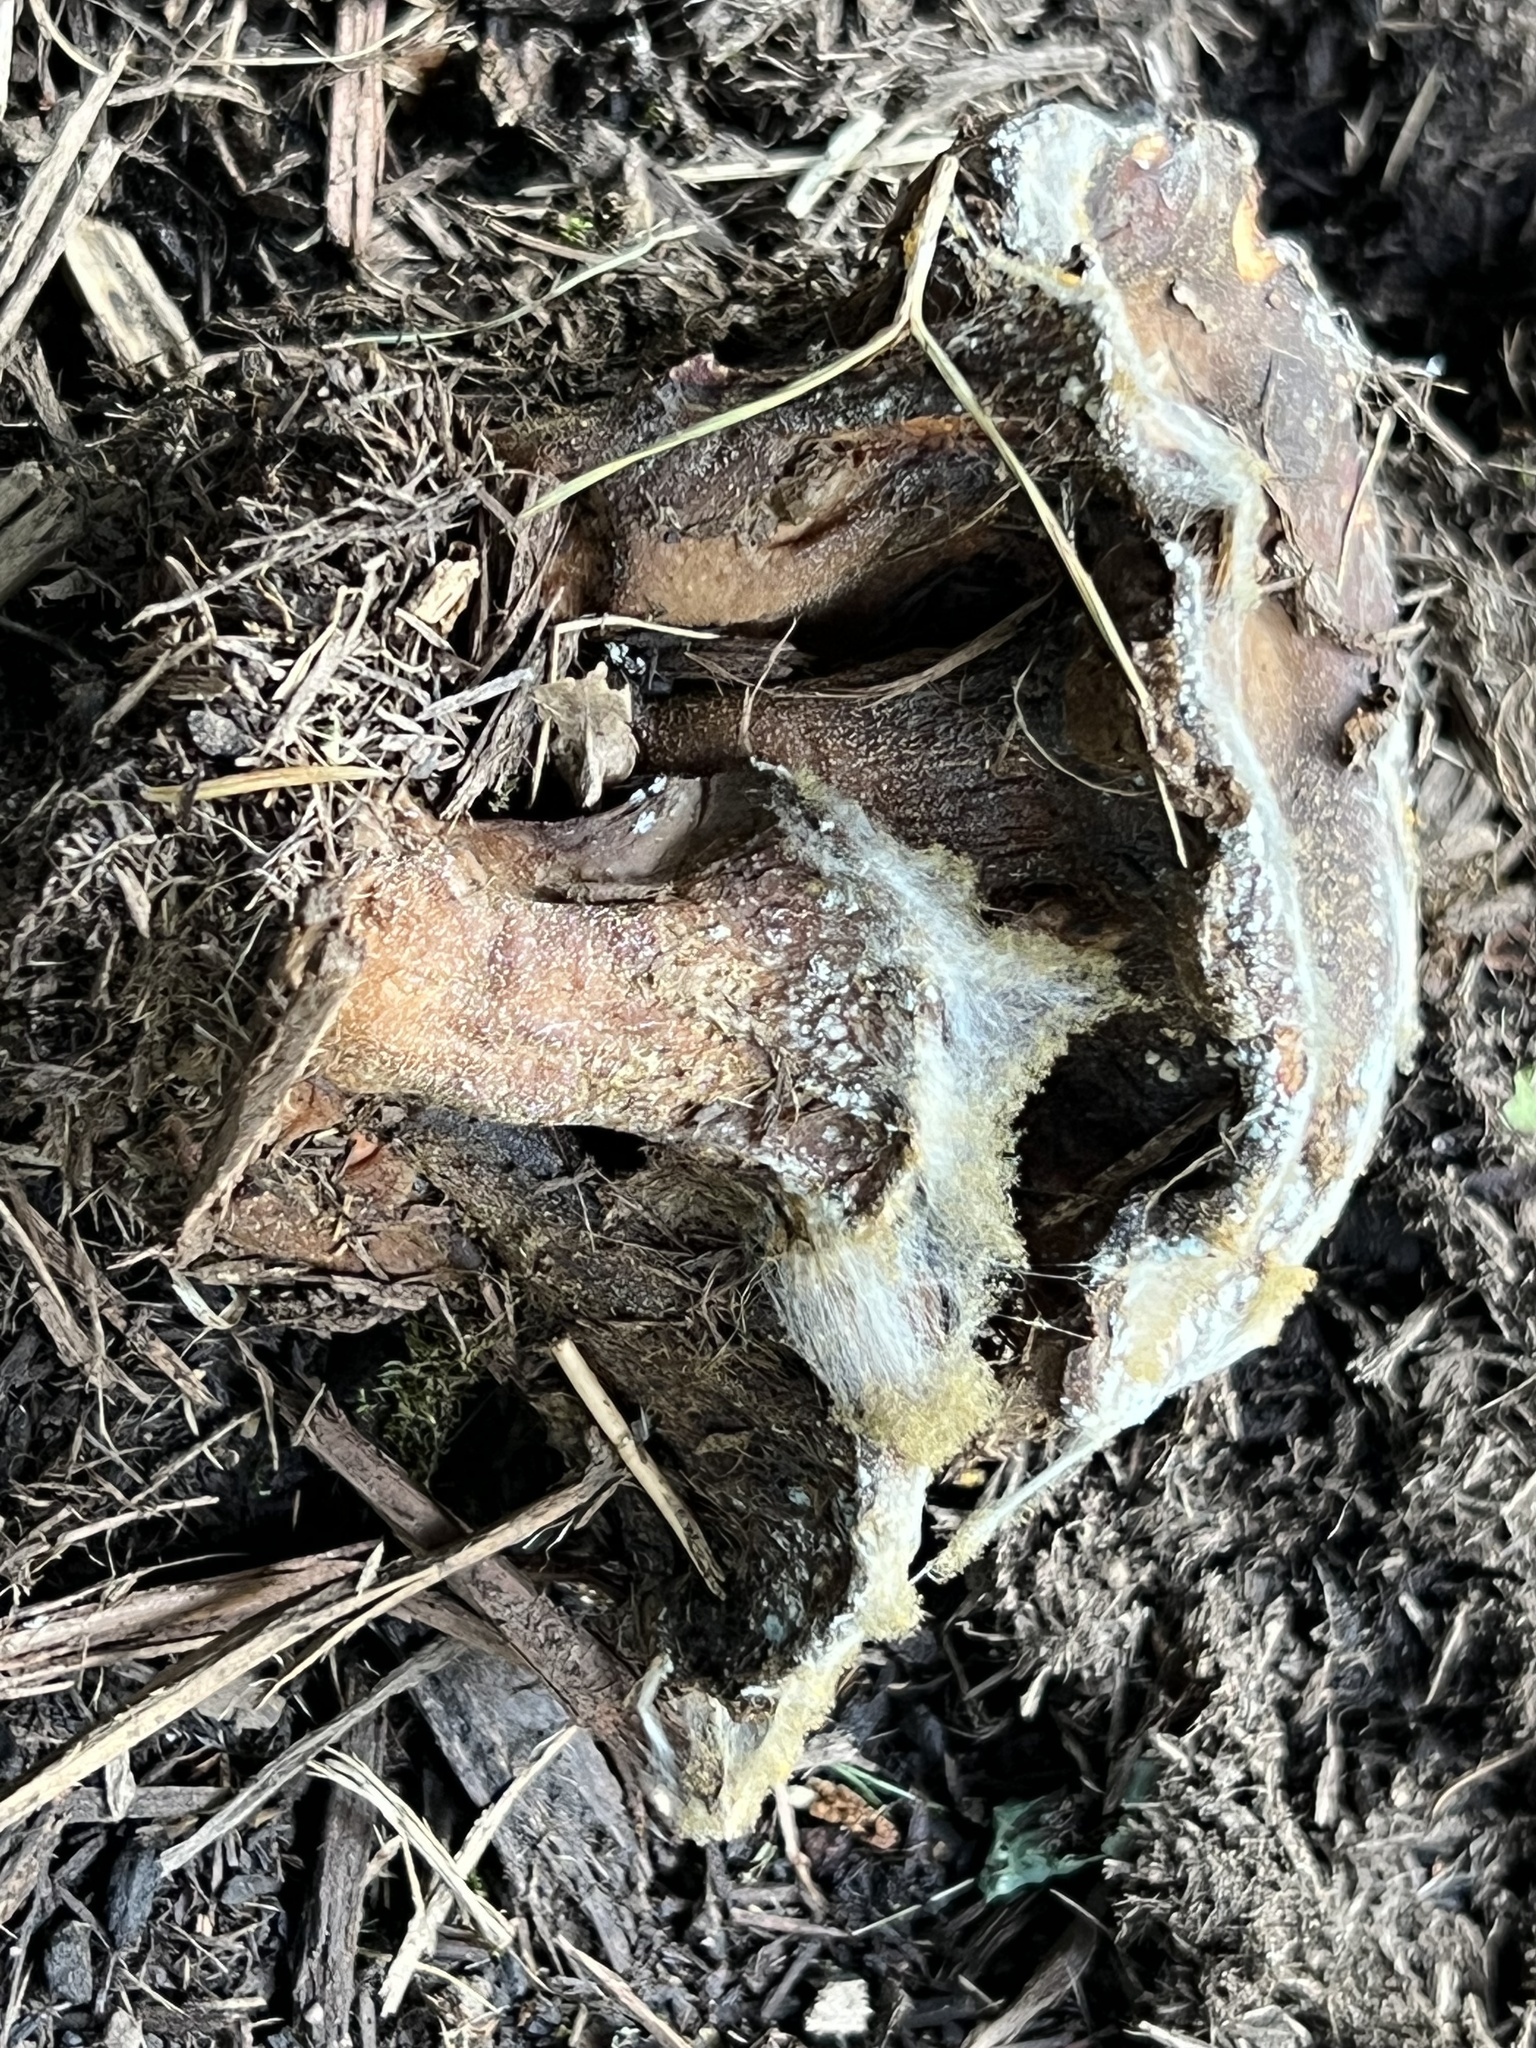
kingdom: Fungi
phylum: Mucoromycota
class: Mucoromycetes
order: Mucorales
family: Rhizopodaceae
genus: Syzygites
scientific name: Syzygites megalocarpus
